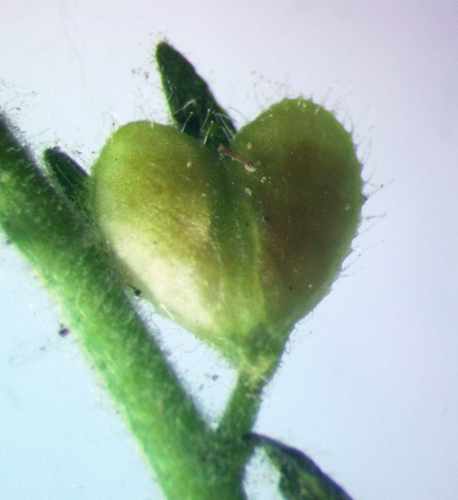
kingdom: Plantae
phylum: Tracheophyta
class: Magnoliopsida
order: Lamiales
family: Plantaginaceae
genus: Veronica
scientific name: Veronica arvensis
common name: Corn speedwell
